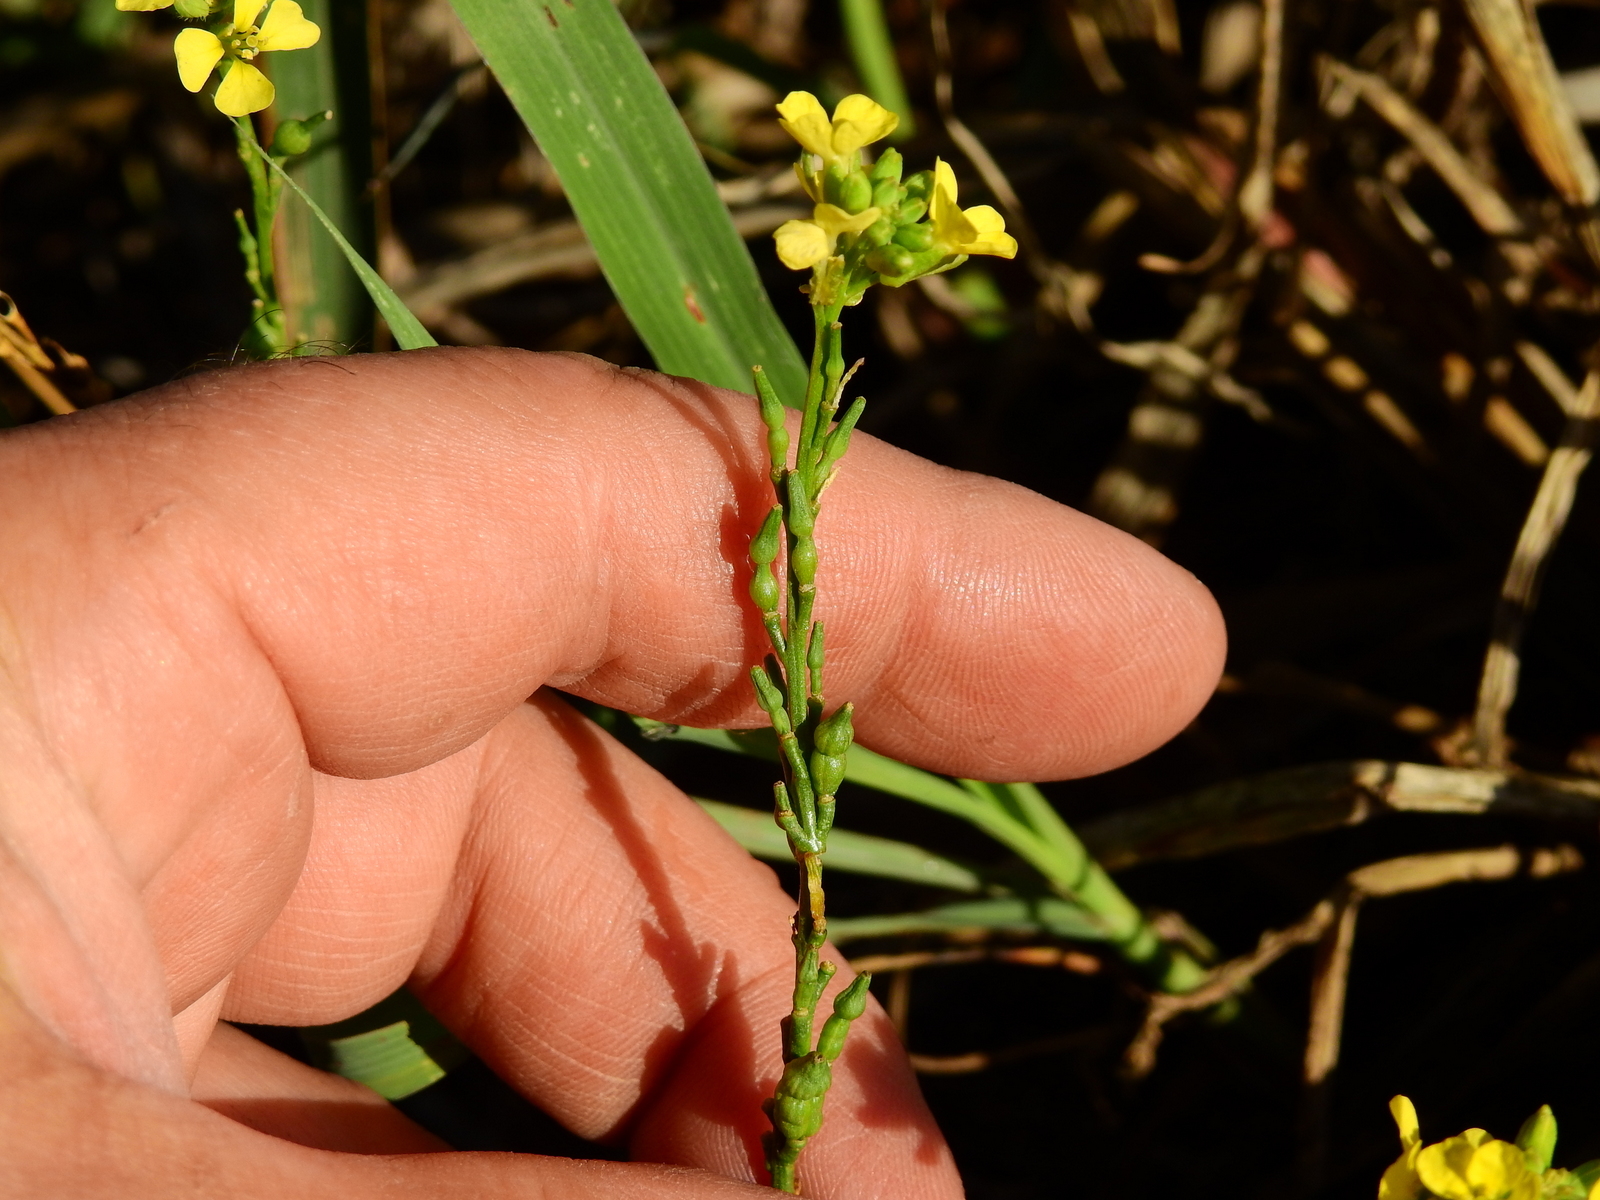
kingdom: Plantae
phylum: Tracheophyta
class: Magnoliopsida
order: Brassicales
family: Brassicaceae
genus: Rapistrum
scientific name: Rapistrum rugosum
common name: Annual bastardcabbage
